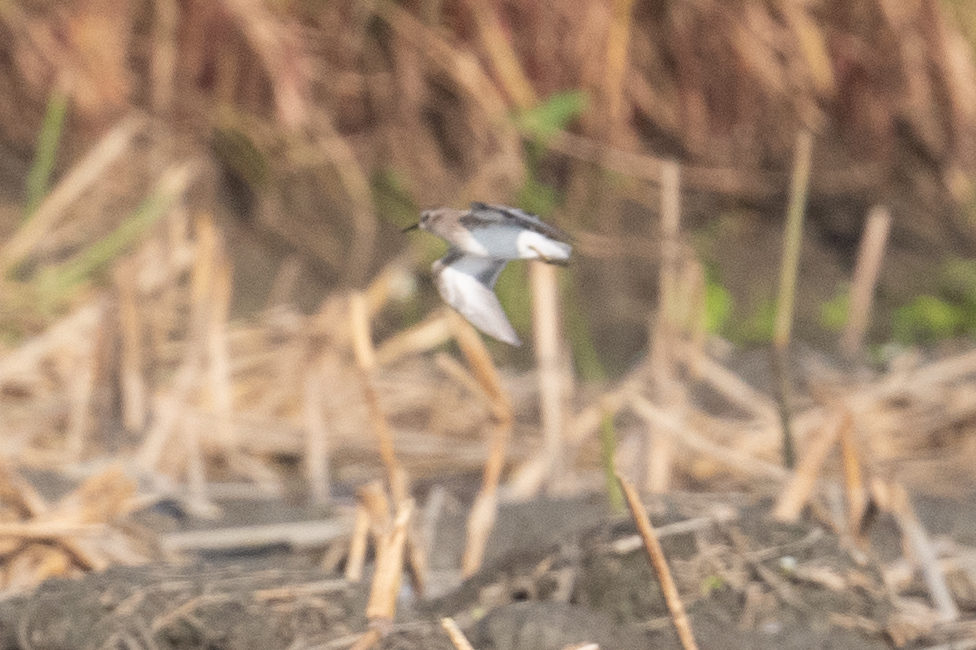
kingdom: Animalia
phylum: Chordata
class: Aves
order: Charadriiformes
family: Scolopacidae
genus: Calidris
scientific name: Calidris minutilla
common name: Least sandpiper
